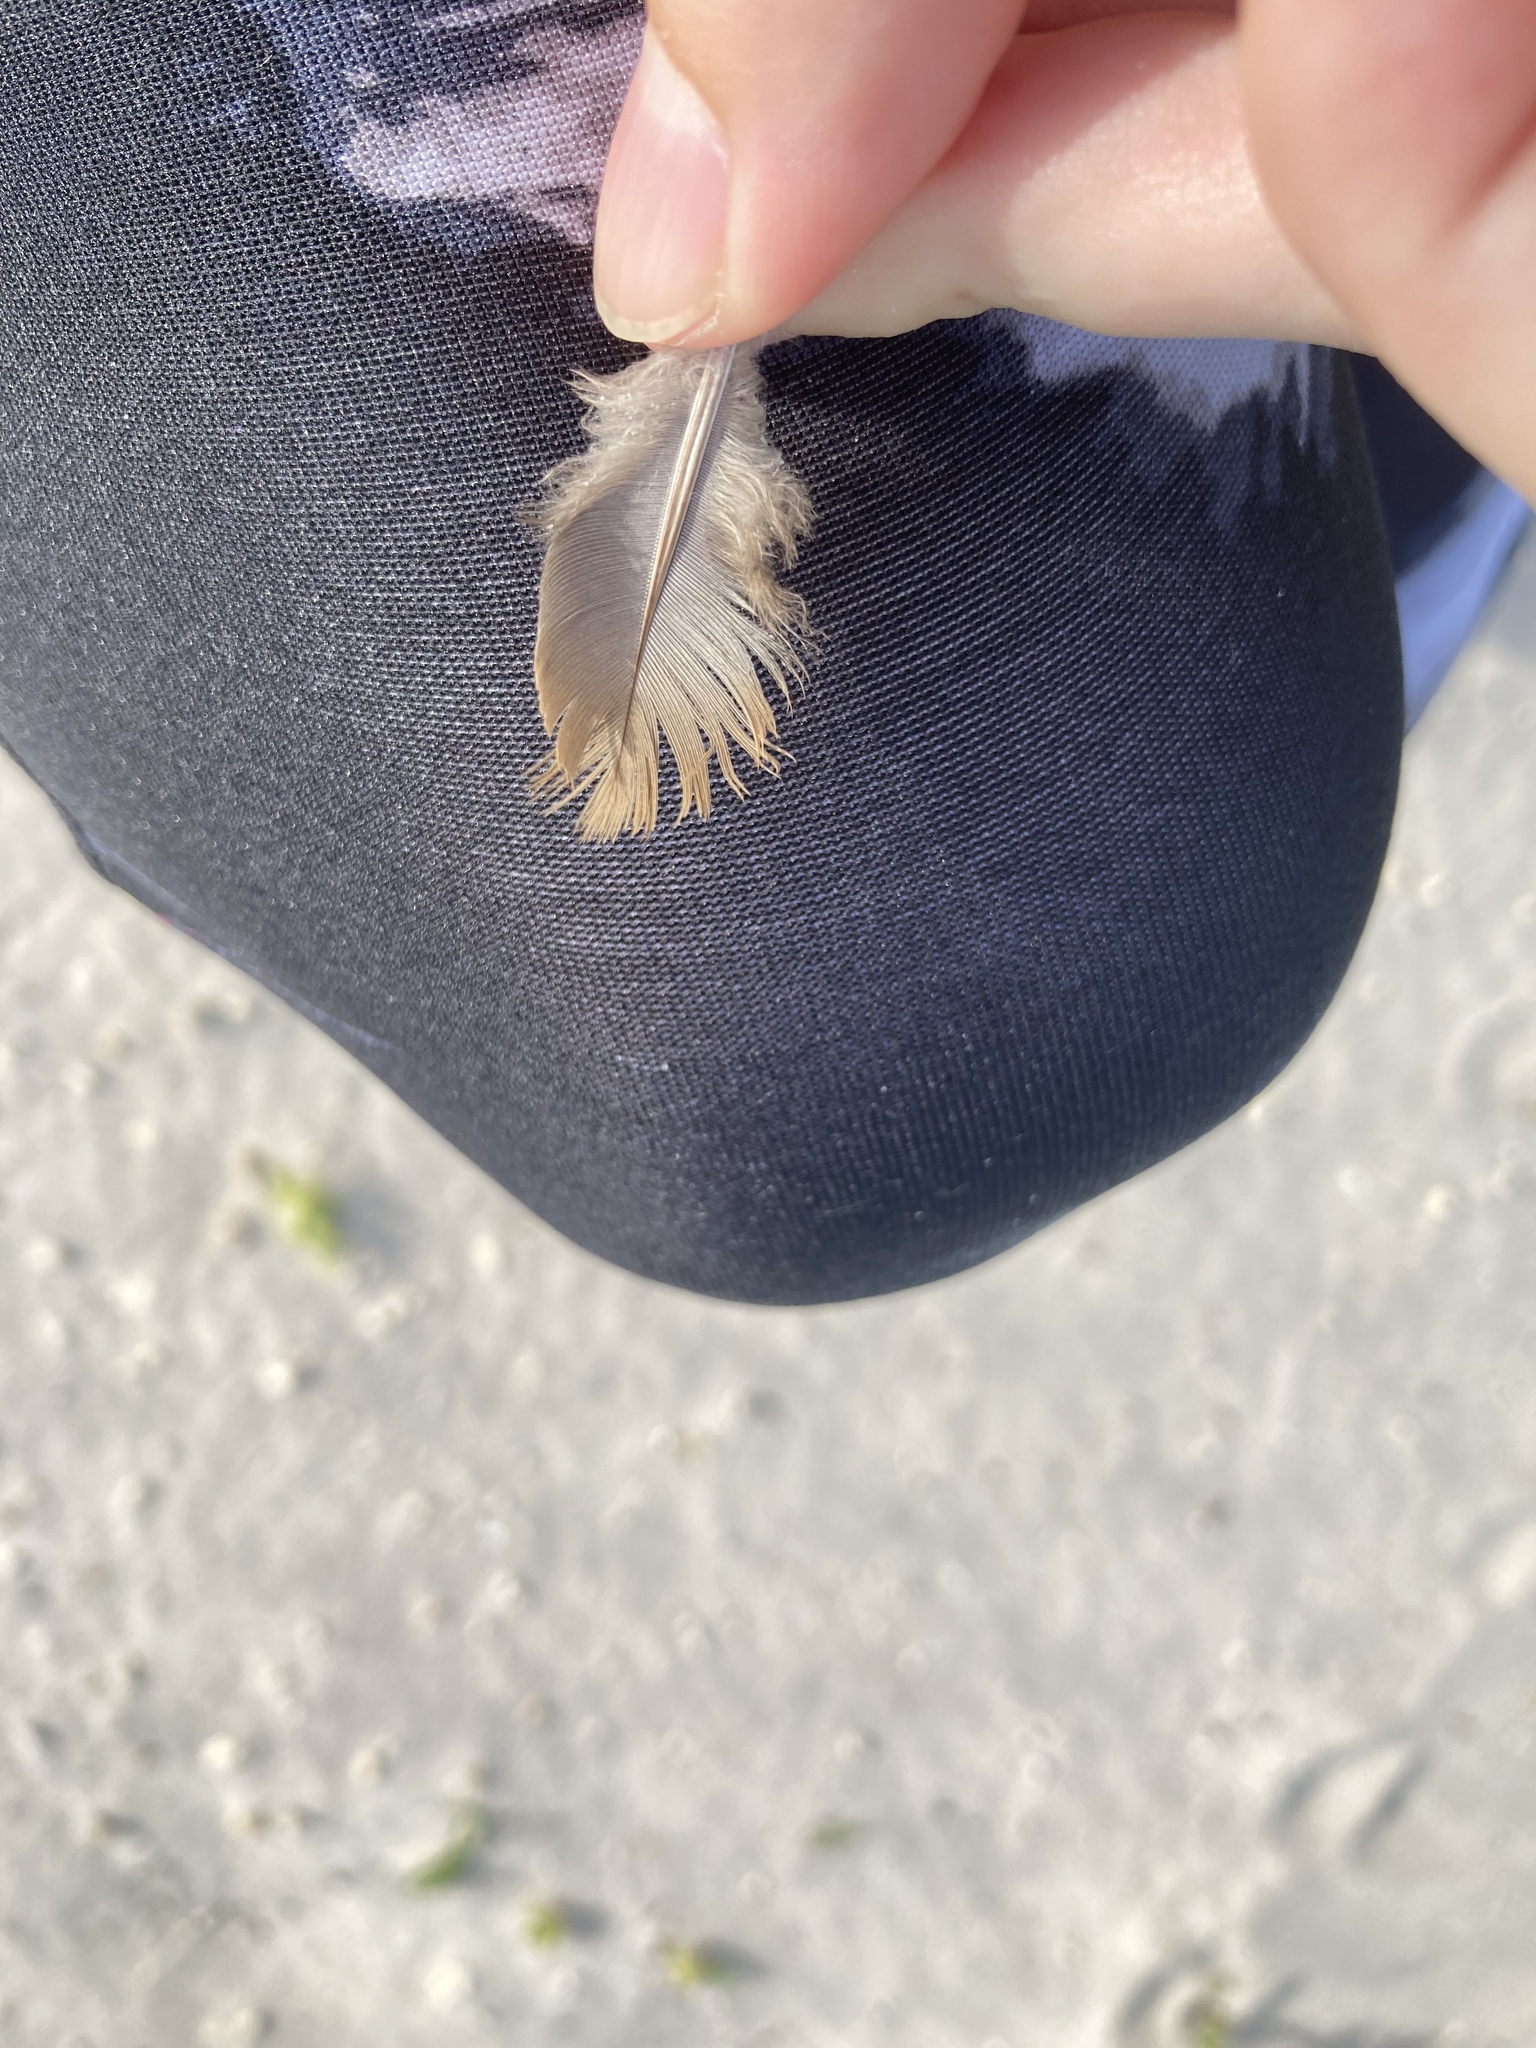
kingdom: Animalia
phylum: Chordata
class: Aves
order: Columbiformes
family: Columbidae
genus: Zenaida
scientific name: Zenaida macroura
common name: Mourning dove
